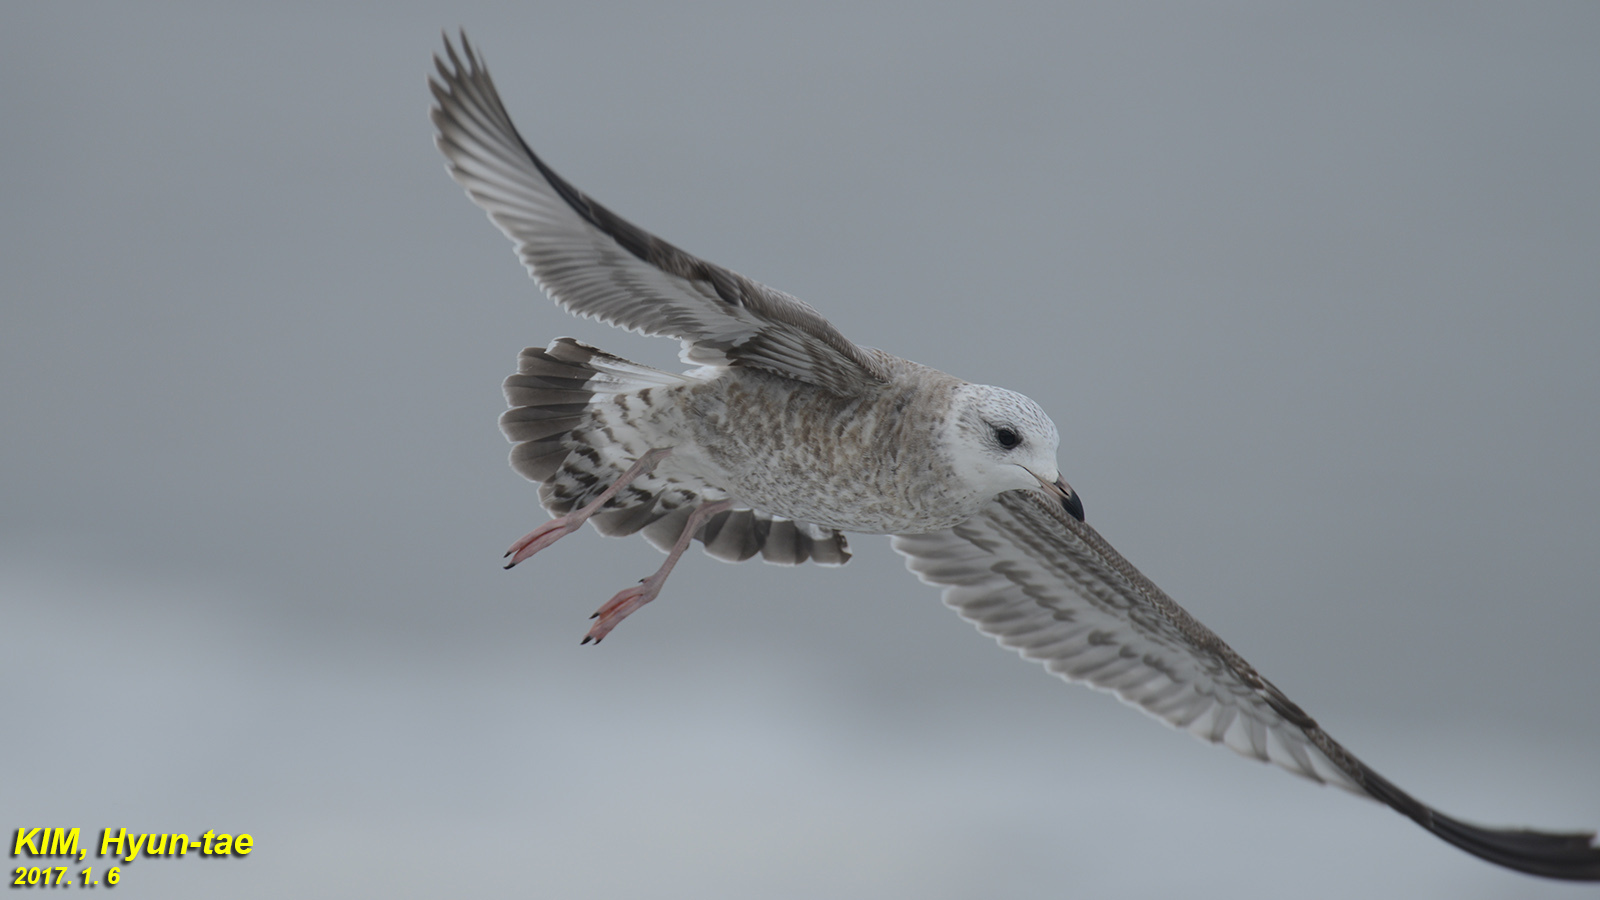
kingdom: Animalia
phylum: Chordata
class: Aves
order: Charadriiformes
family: Laridae
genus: Larus
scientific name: Larus canus
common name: Mew gull
